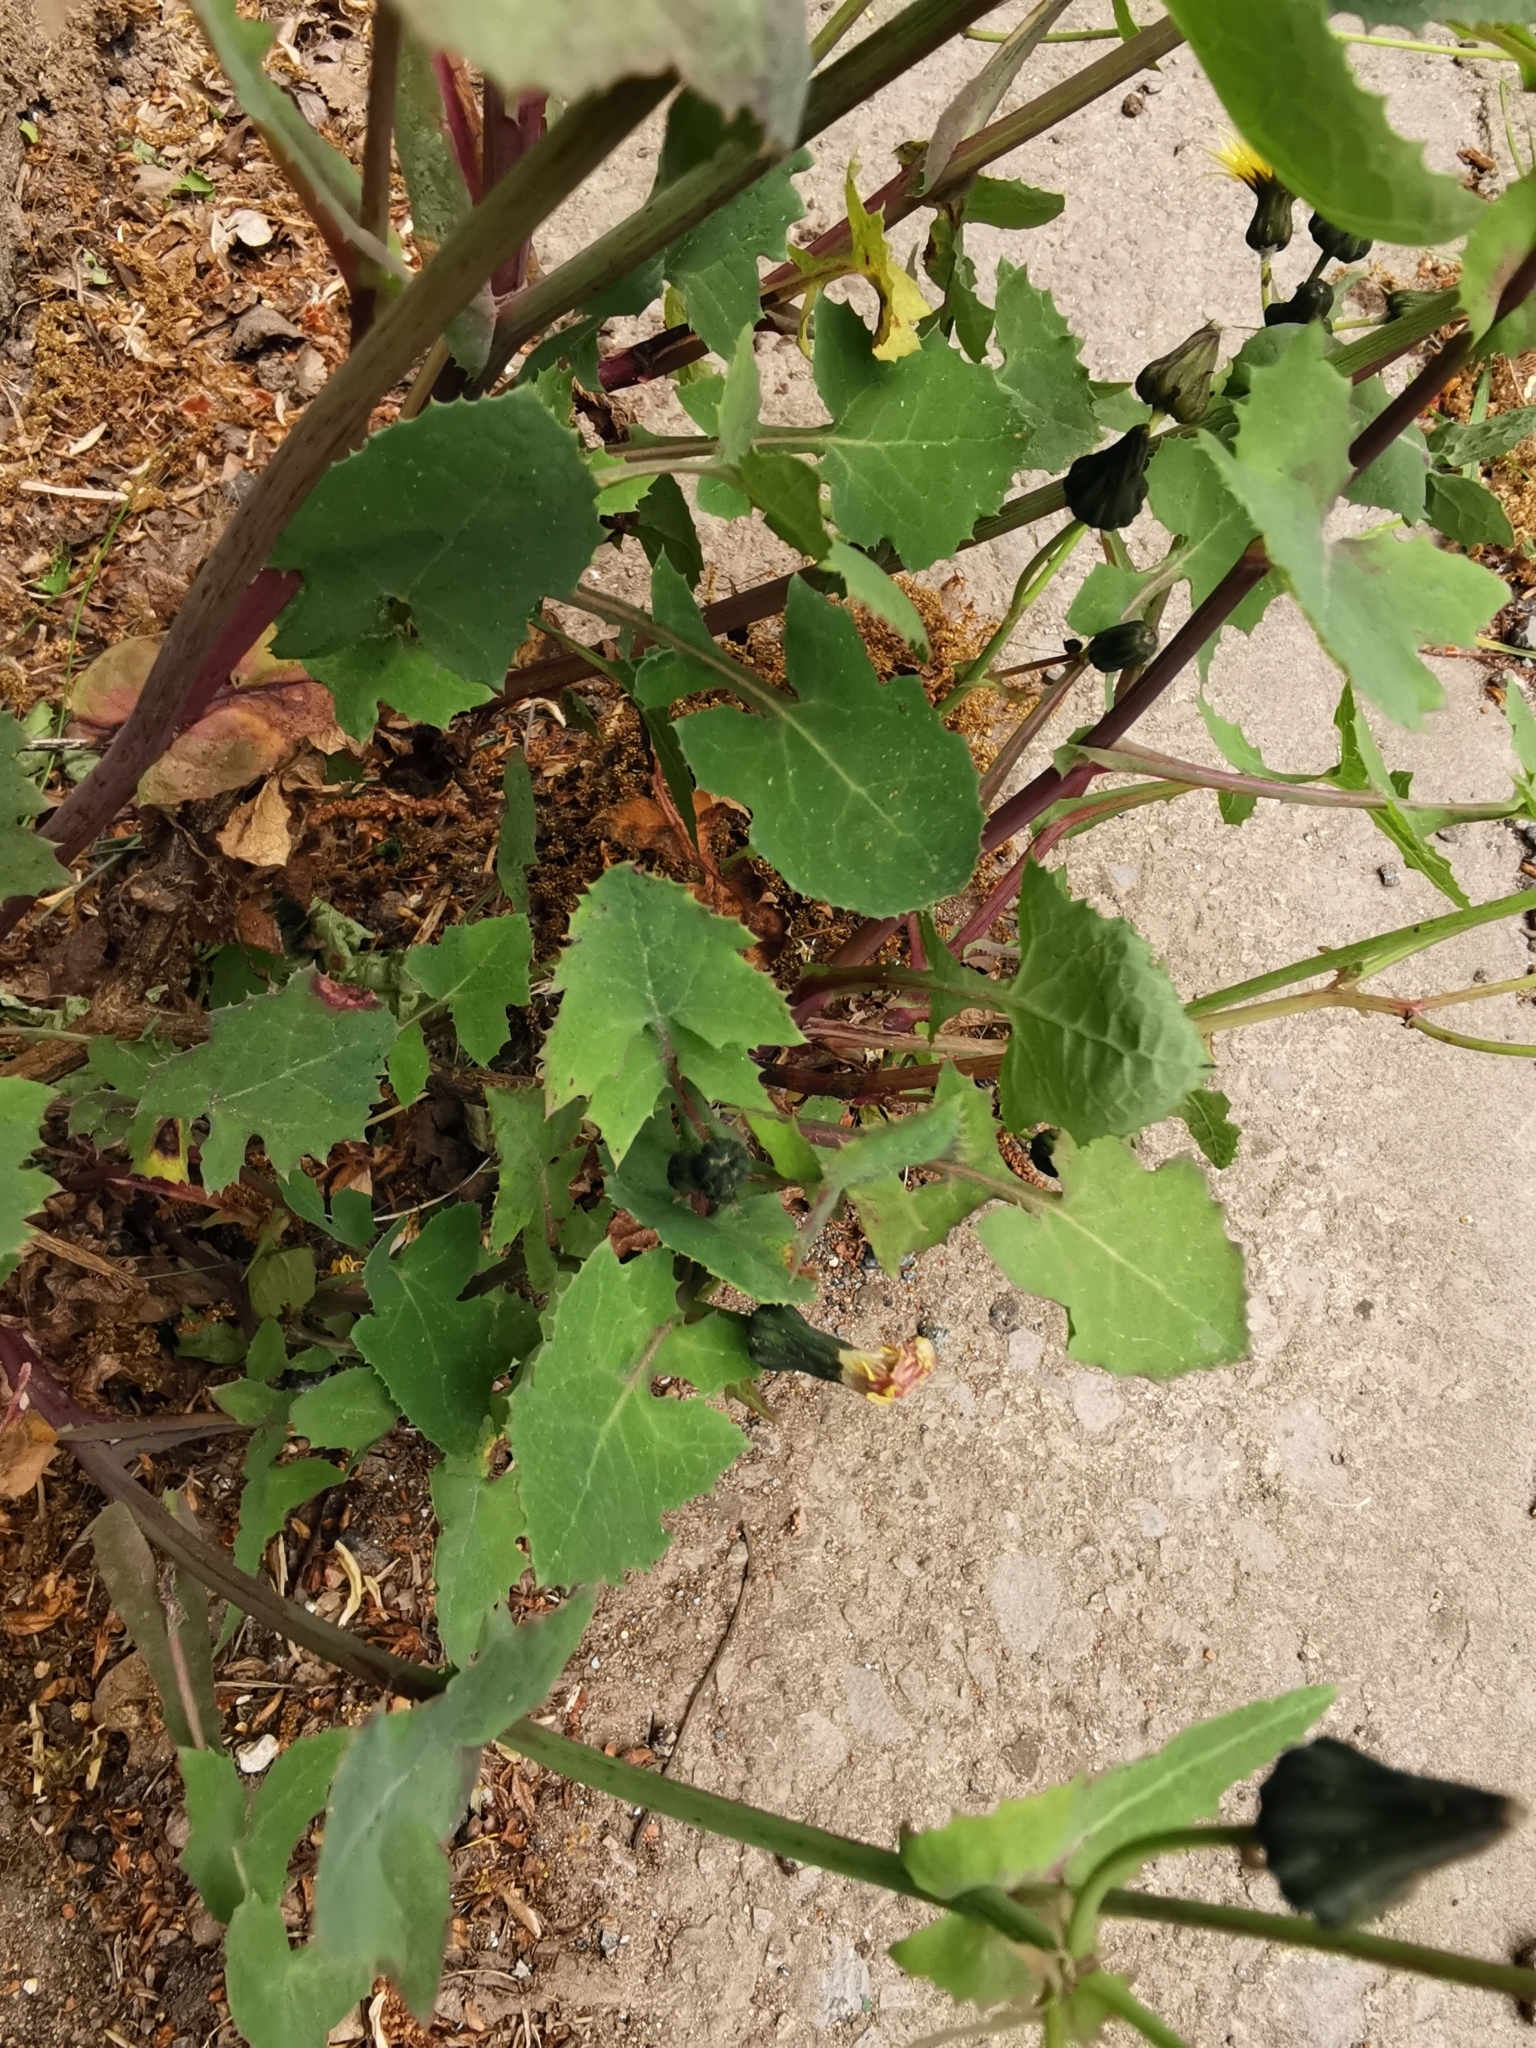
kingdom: Plantae
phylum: Tracheophyta
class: Magnoliopsida
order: Asterales
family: Asteraceae
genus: Sonchus
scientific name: Sonchus oleraceus
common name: Common sowthistle
